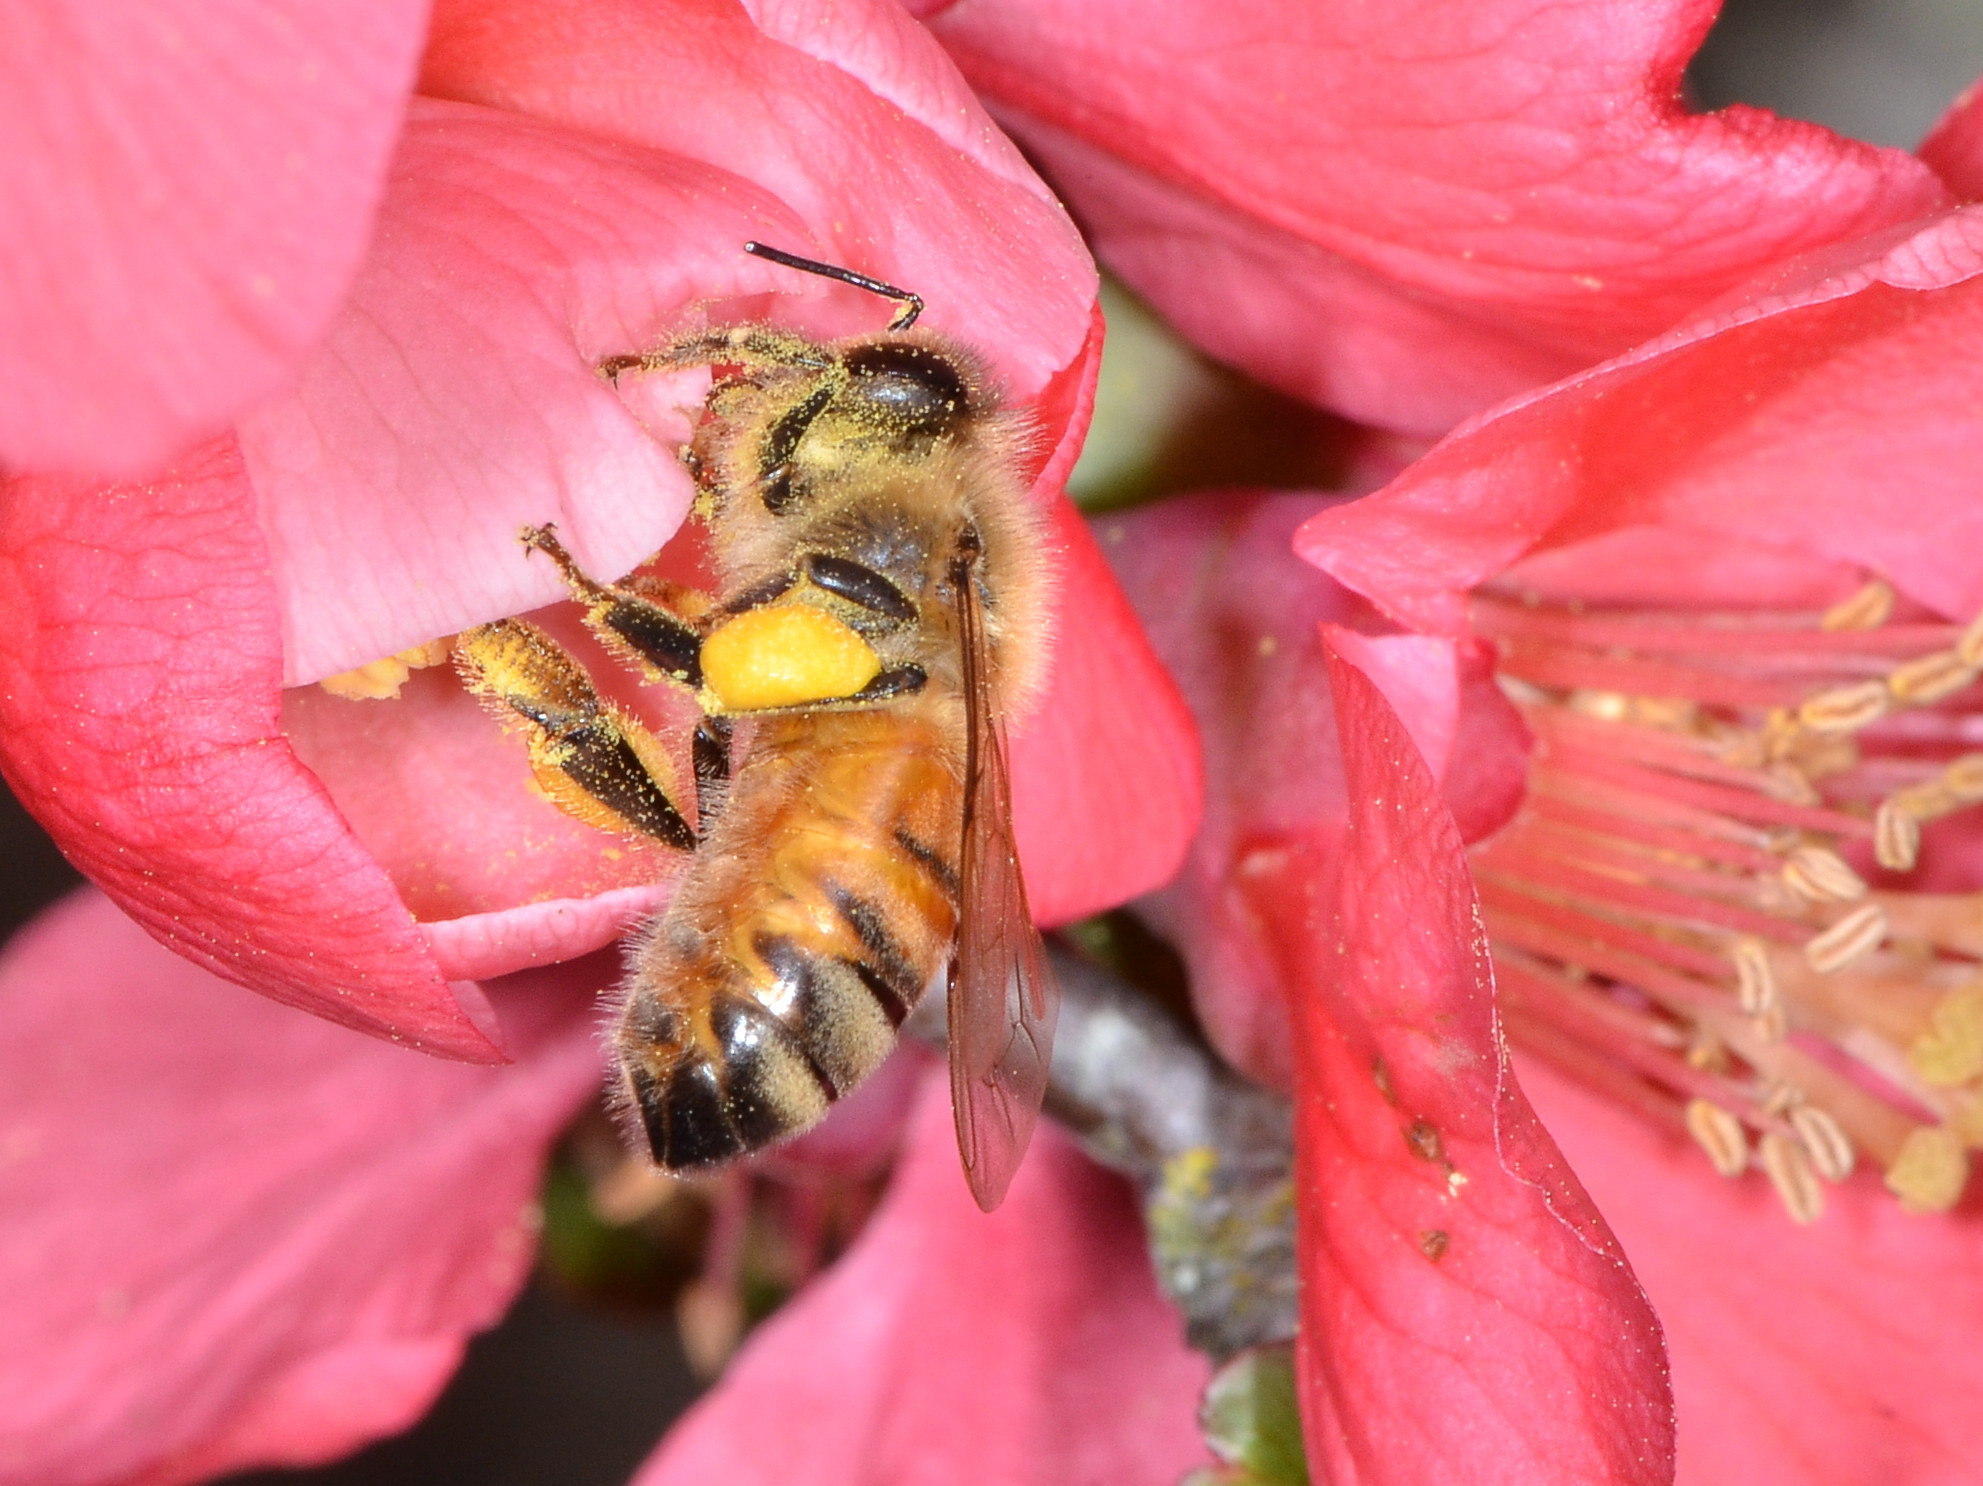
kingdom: Animalia
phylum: Arthropoda
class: Insecta
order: Hymenoptera
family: Apidae
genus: Apis
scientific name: Apis mellifera
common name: Honey bee
